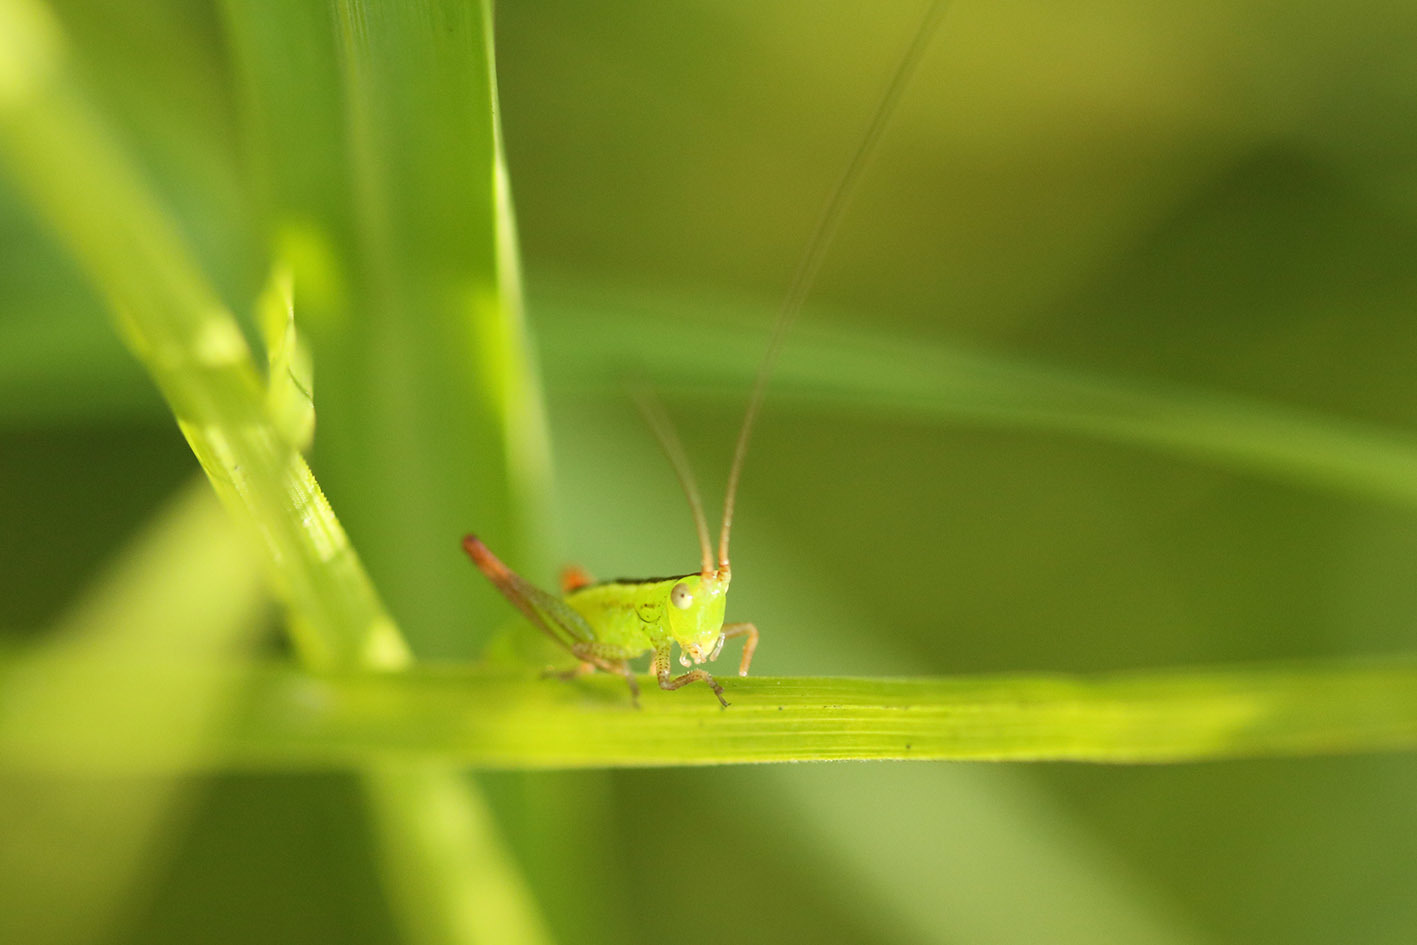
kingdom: Animalia
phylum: Arthropoda
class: Insecta
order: Orthoptera
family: Tettigoniidae
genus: Conocephalus
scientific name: Conocephalus longipes
